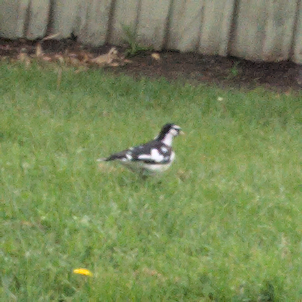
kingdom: Animalia
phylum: Chordata
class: Aves
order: Passeriformes
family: Monarchidae
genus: Grallina
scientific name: Grallina cyanoleuca
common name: Magpie-lark
